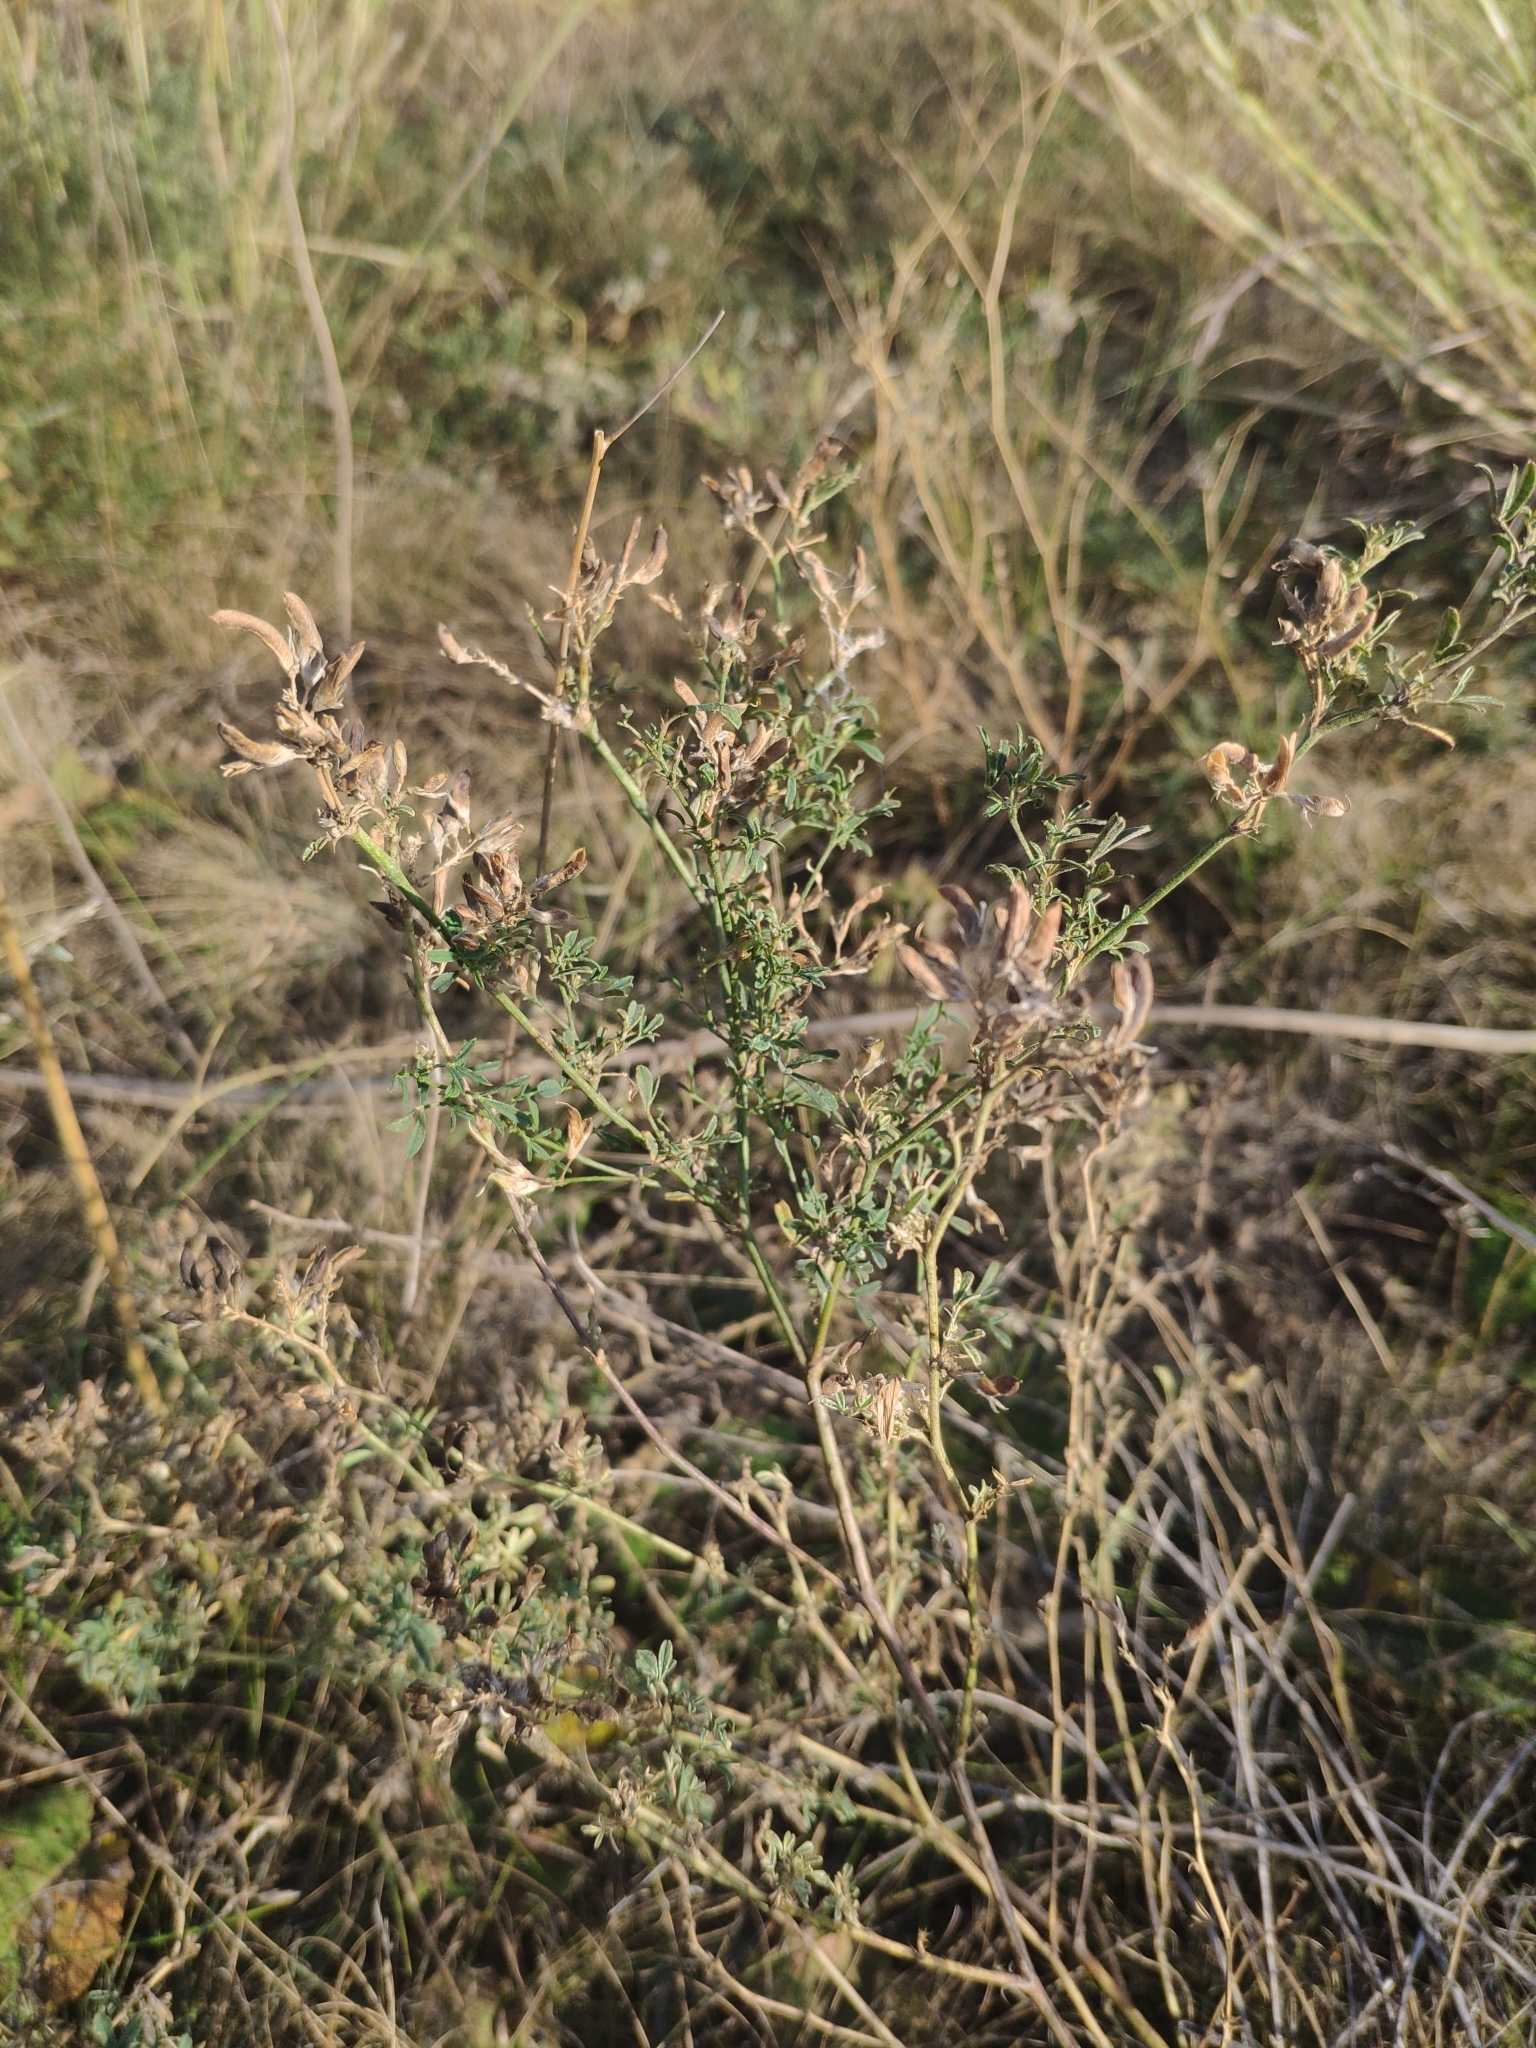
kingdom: Plantae
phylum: Tracheophyta
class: Magnoliopsida
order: Fabales
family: Fabaceae
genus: Medicago
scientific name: Medicago falcata
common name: Sickle medick
